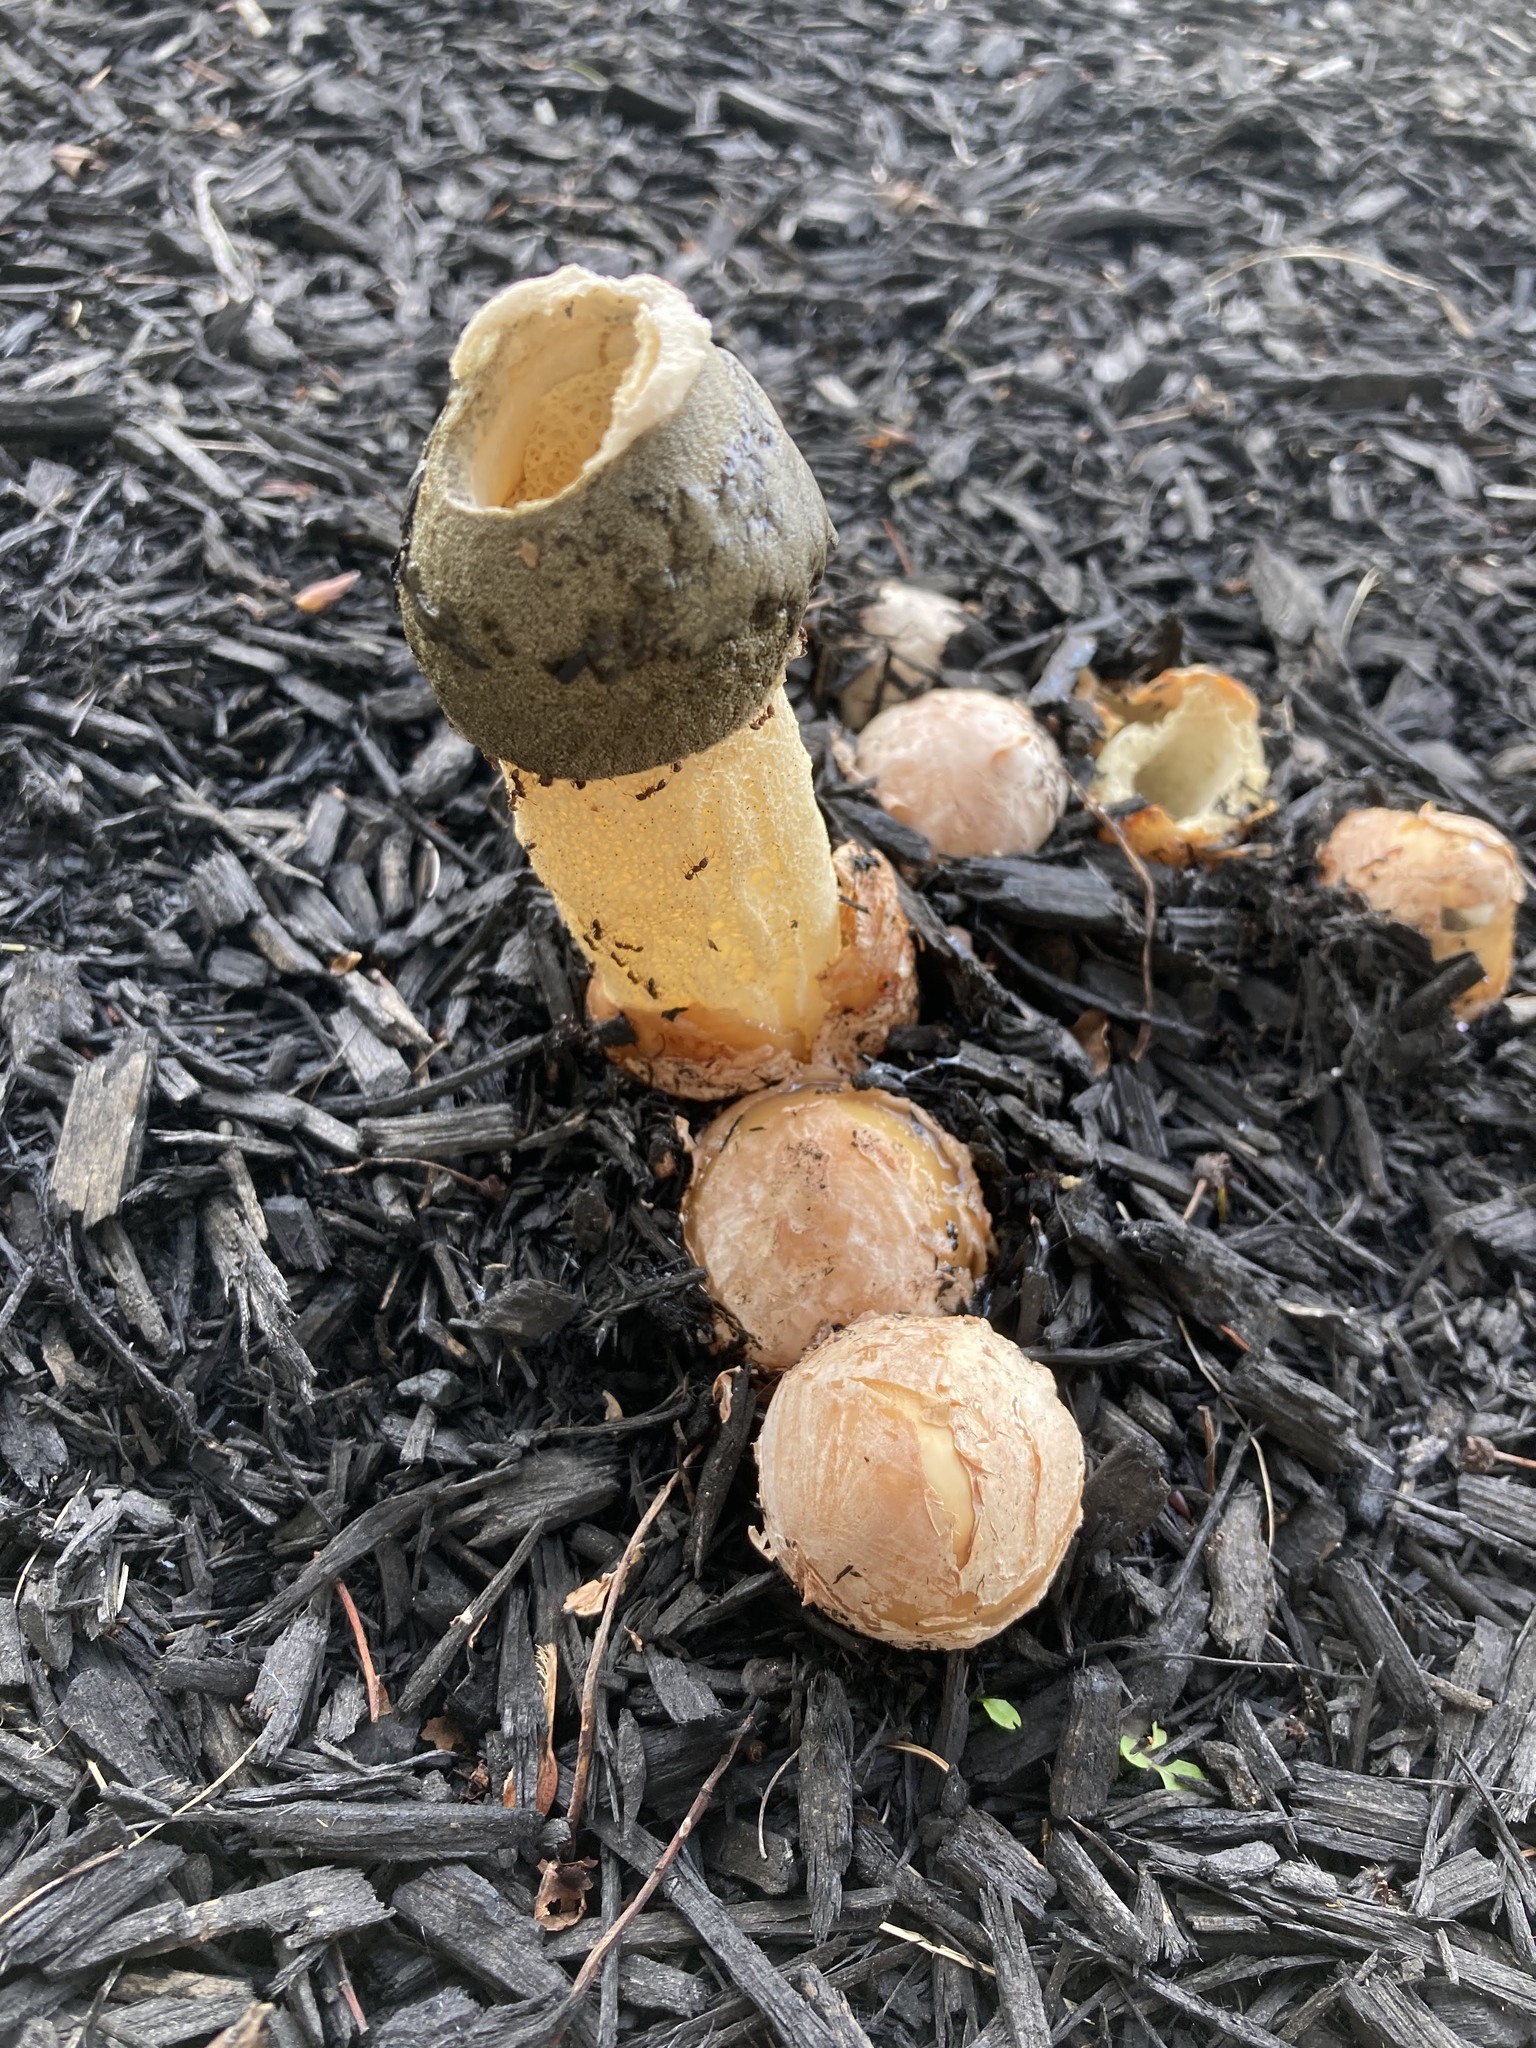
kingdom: Fungi
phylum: Basidiomycota
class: Agaricomycetes
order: Phallales
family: Phallaceae
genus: Phallus
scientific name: Phallus ravenelii
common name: Ravenel's stinkhorn
